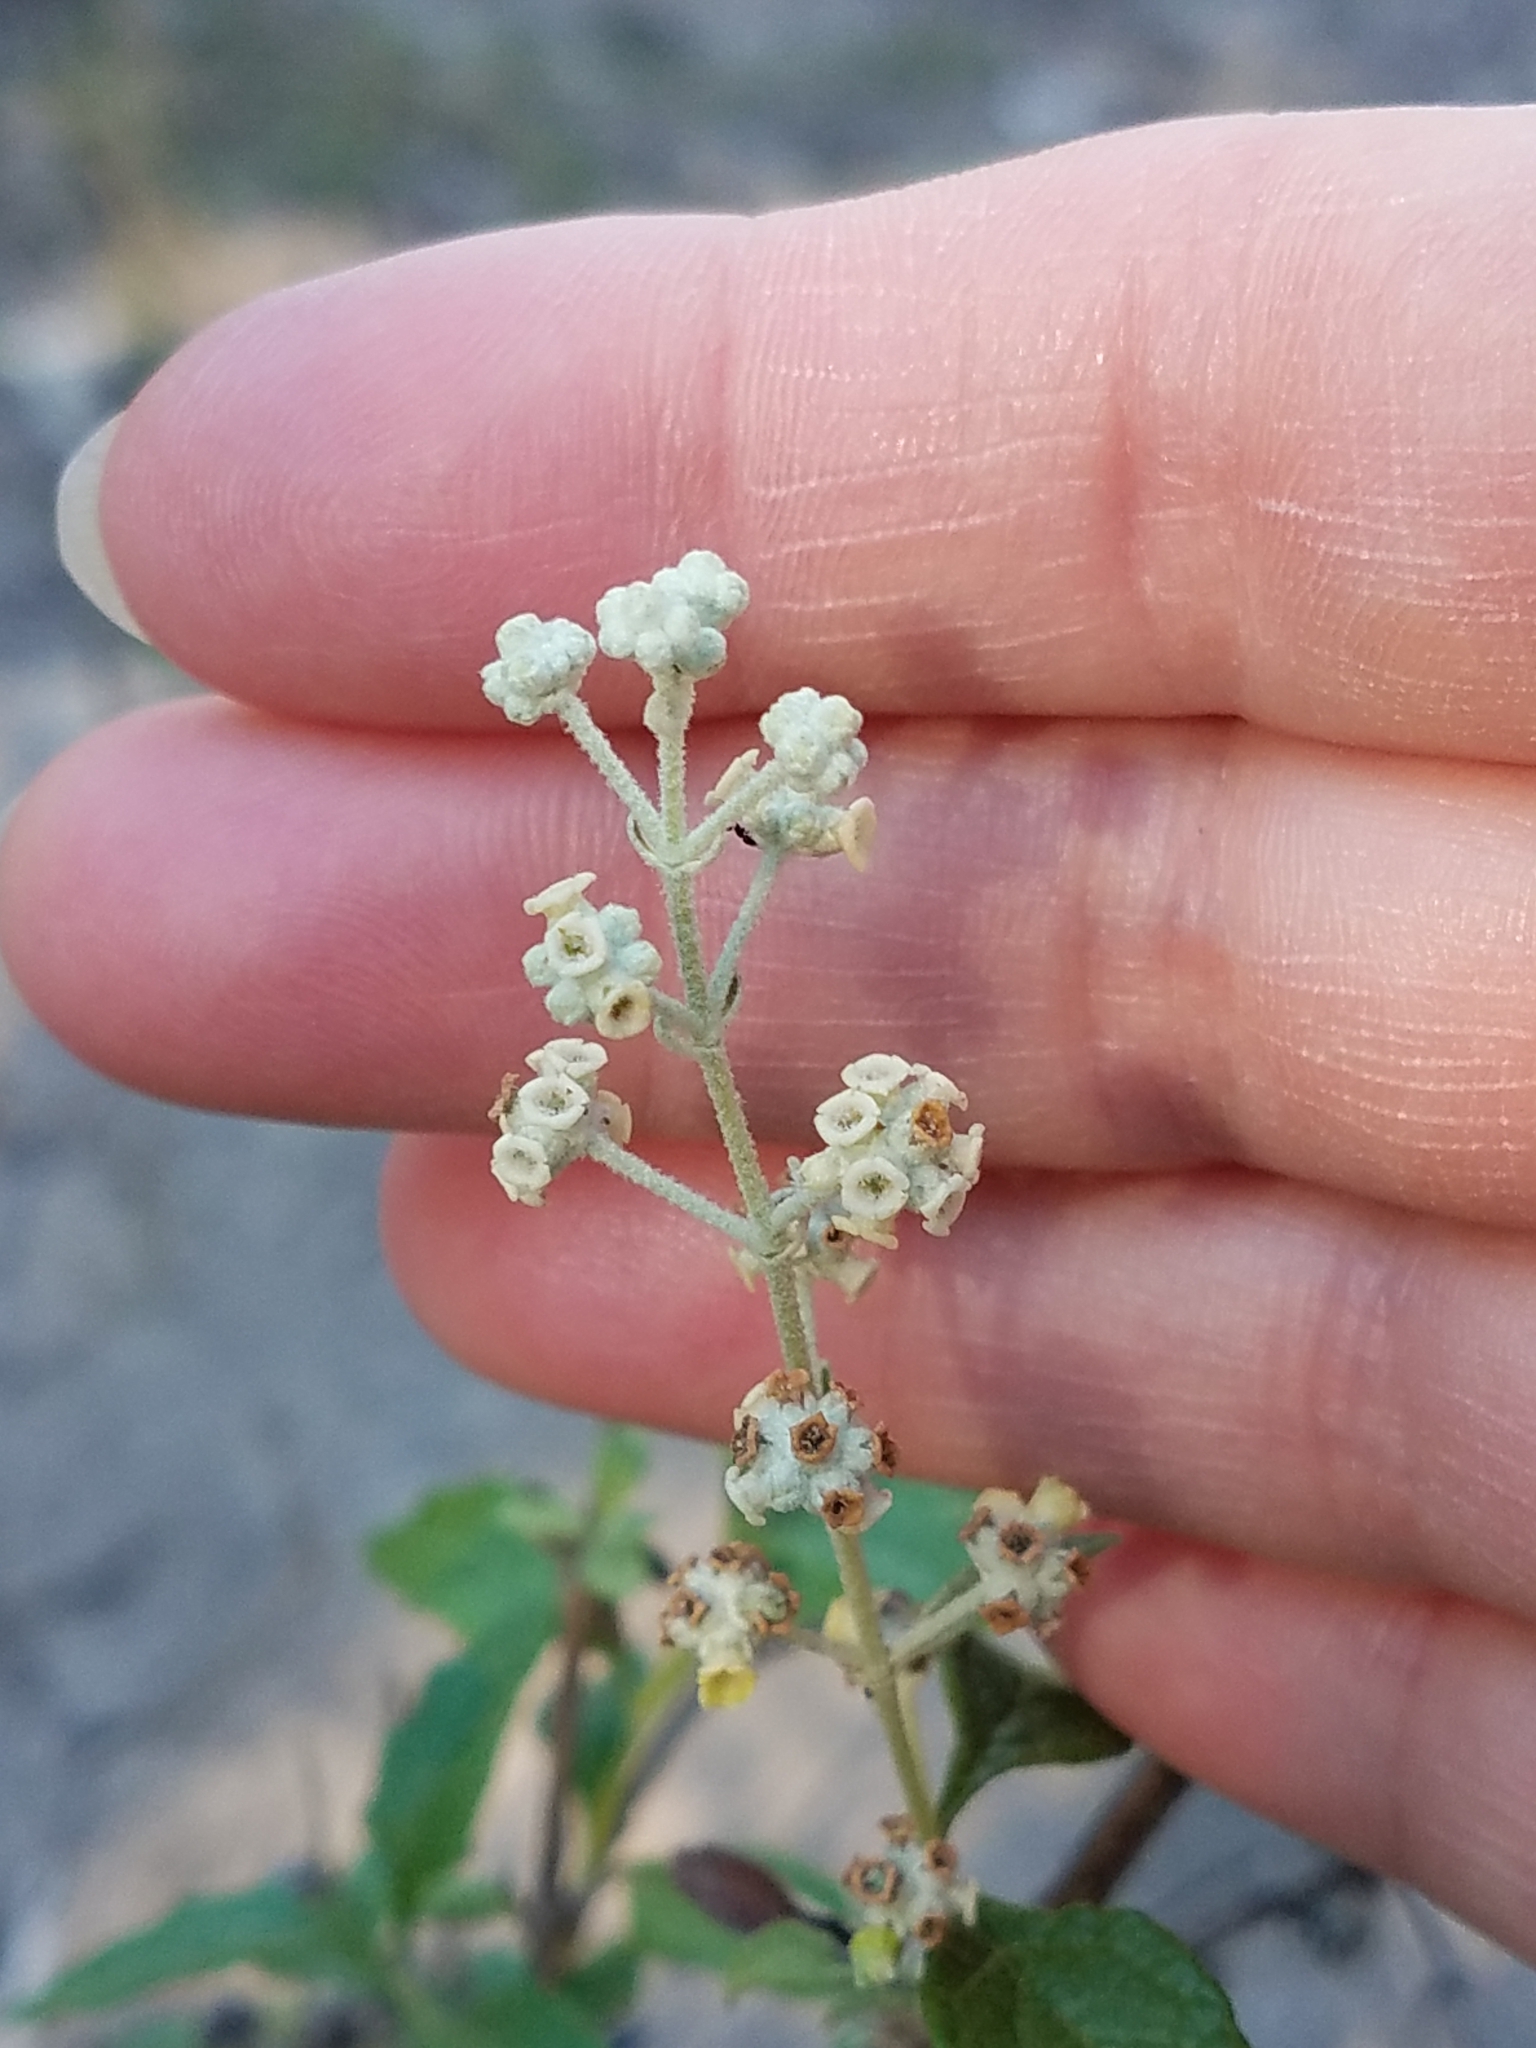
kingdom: Plantae
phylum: Tracheophyta
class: Magnoliopsida
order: Lamiales
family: Scrophulariaceae
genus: Buddleja
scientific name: Buddleja racemosa
